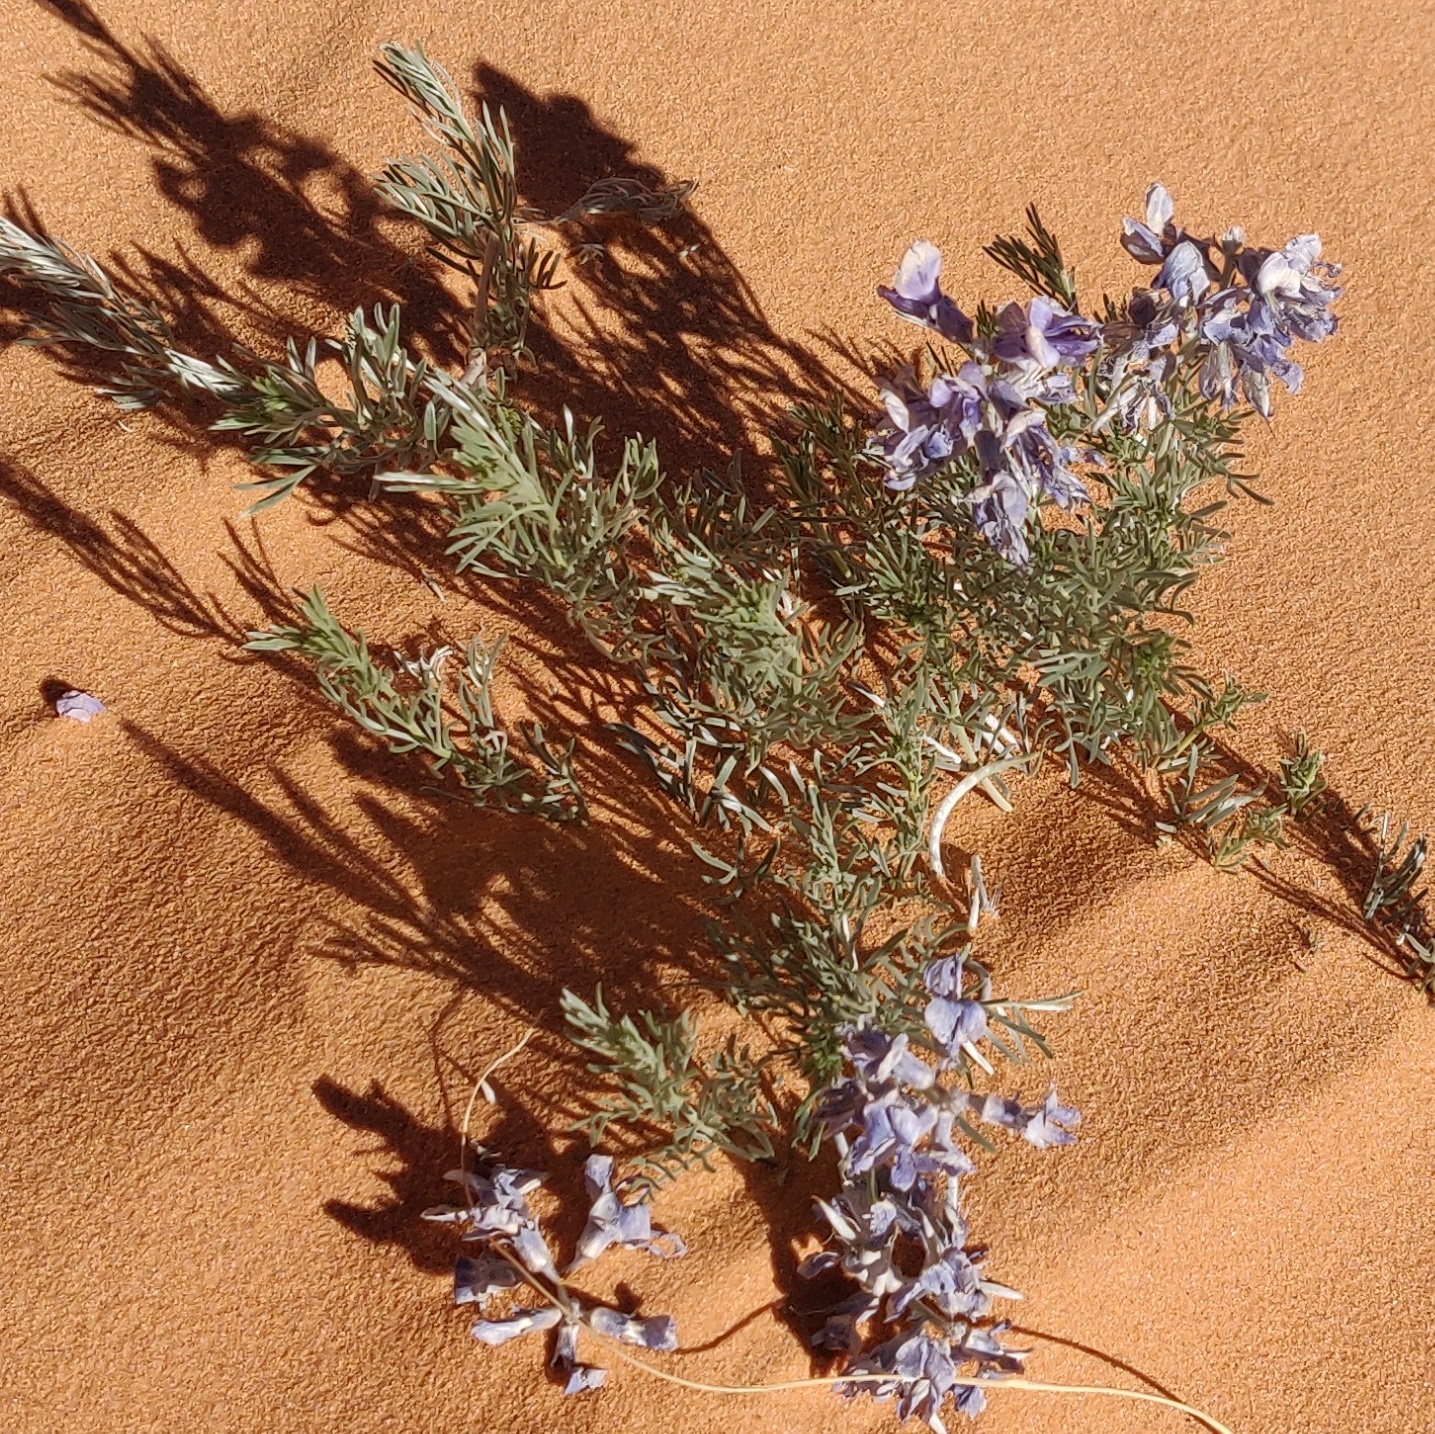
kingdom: Plantae
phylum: Tracheophyta
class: Magnoliopsida
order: Fabales
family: Fabaceae
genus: Sophora
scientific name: Sophora stenophylla
